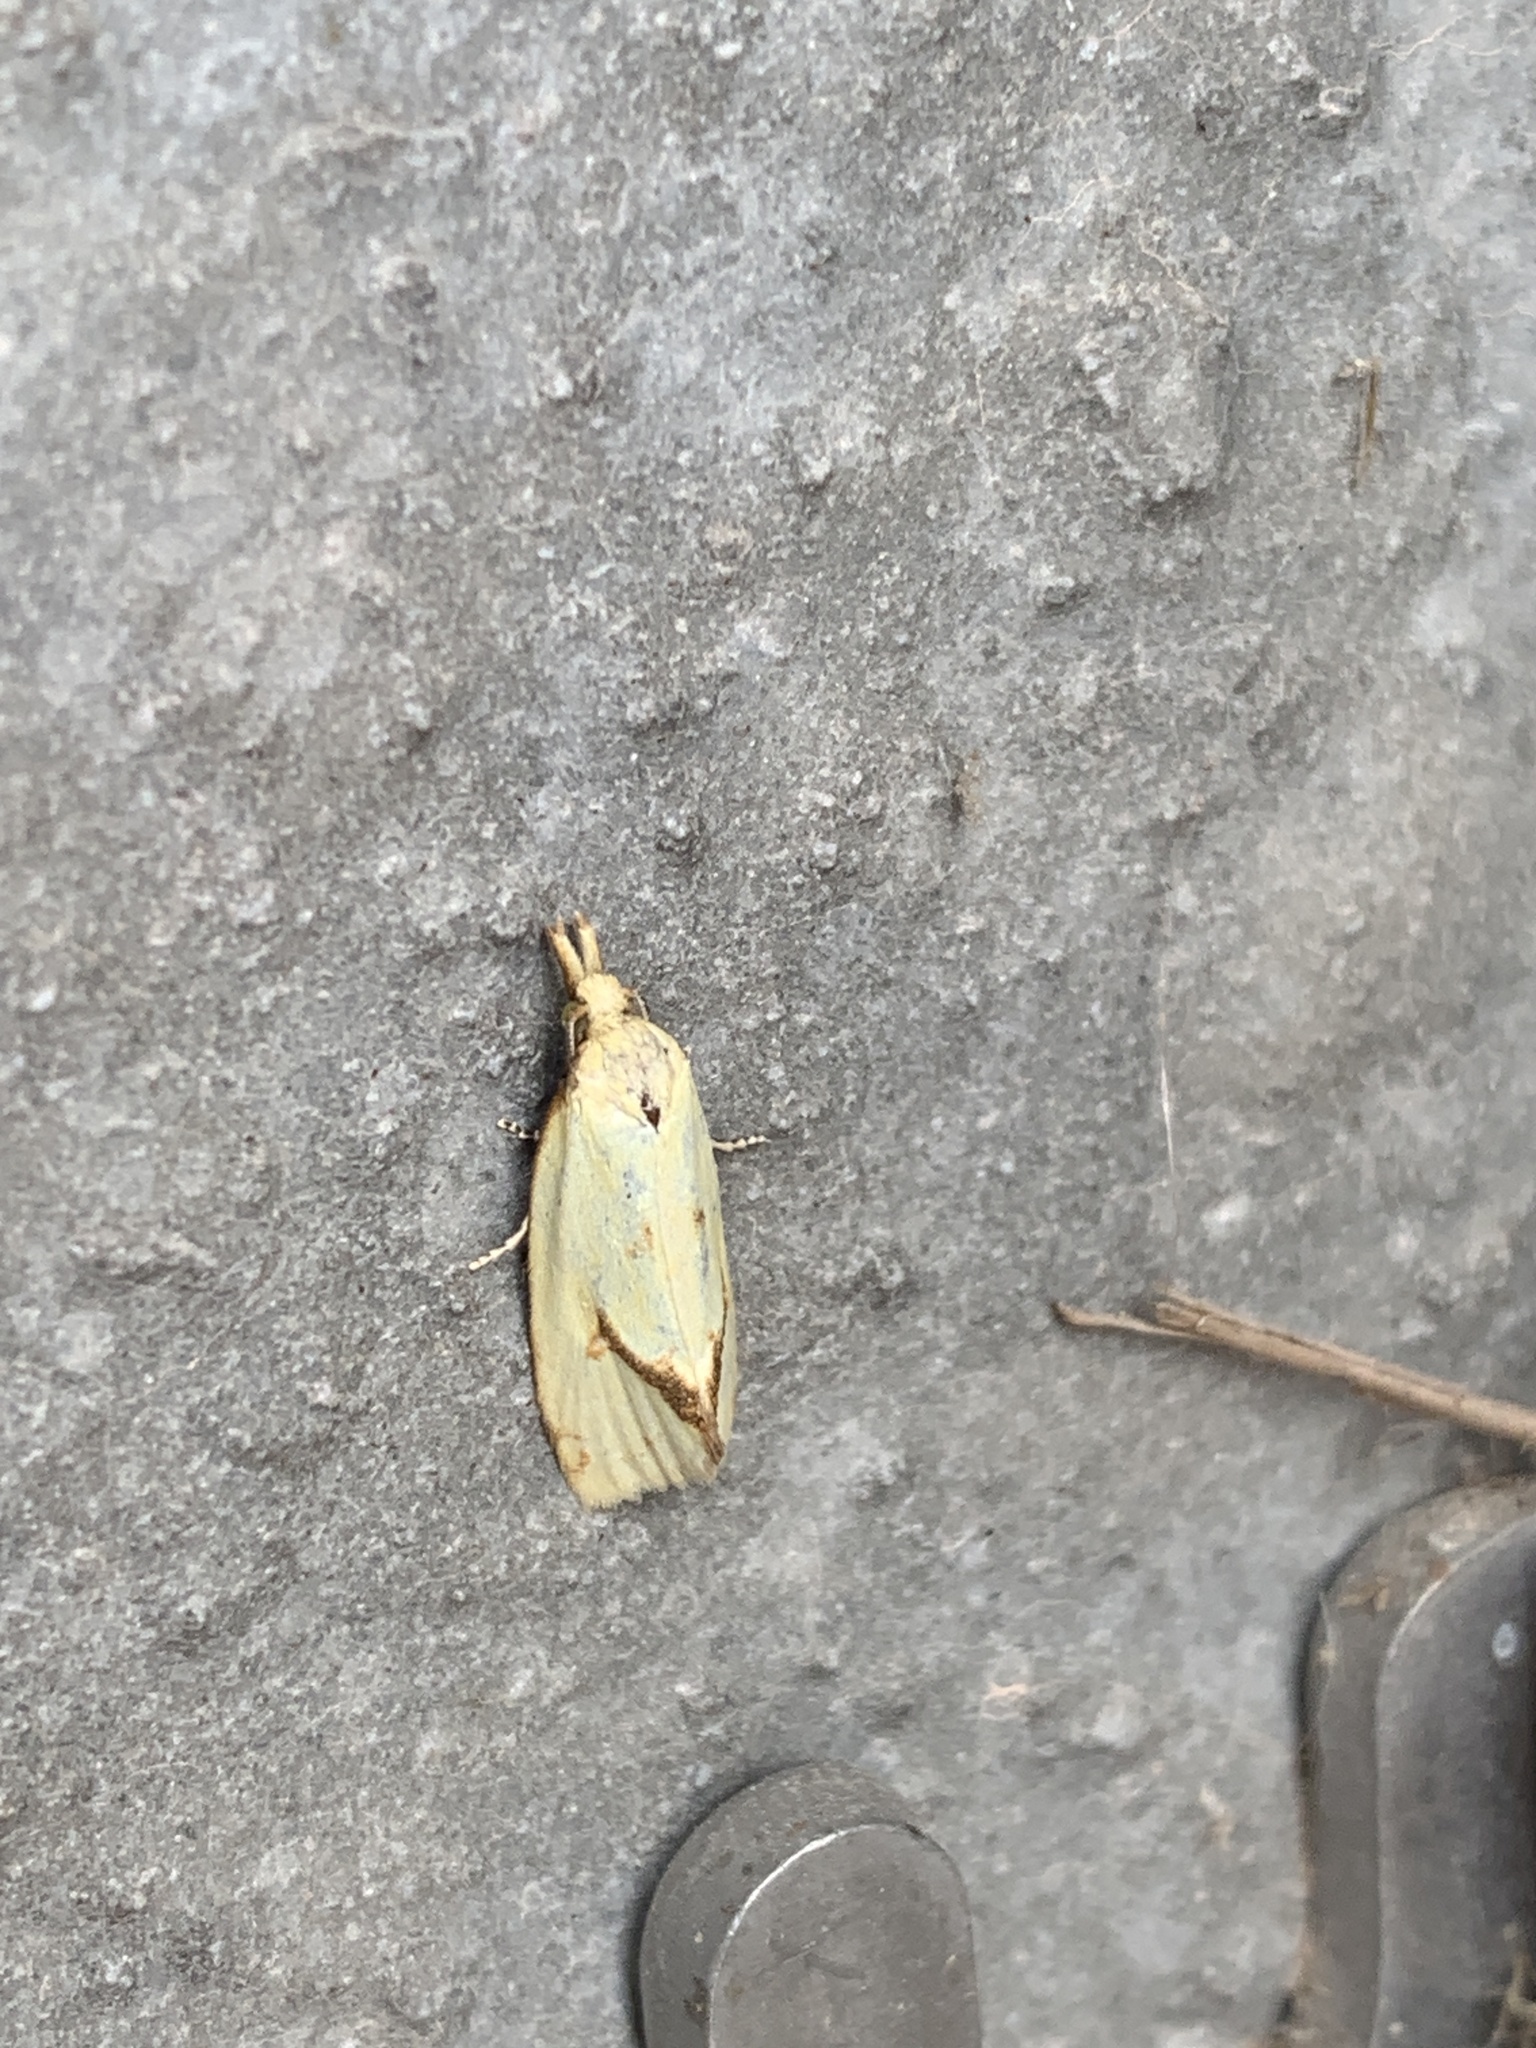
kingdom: Animalia
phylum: Arthropoda
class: Insecta
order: Lepidoptera
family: Tortricidae
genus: Agapeta
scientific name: Agapeta hamana
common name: Common yellow conch
